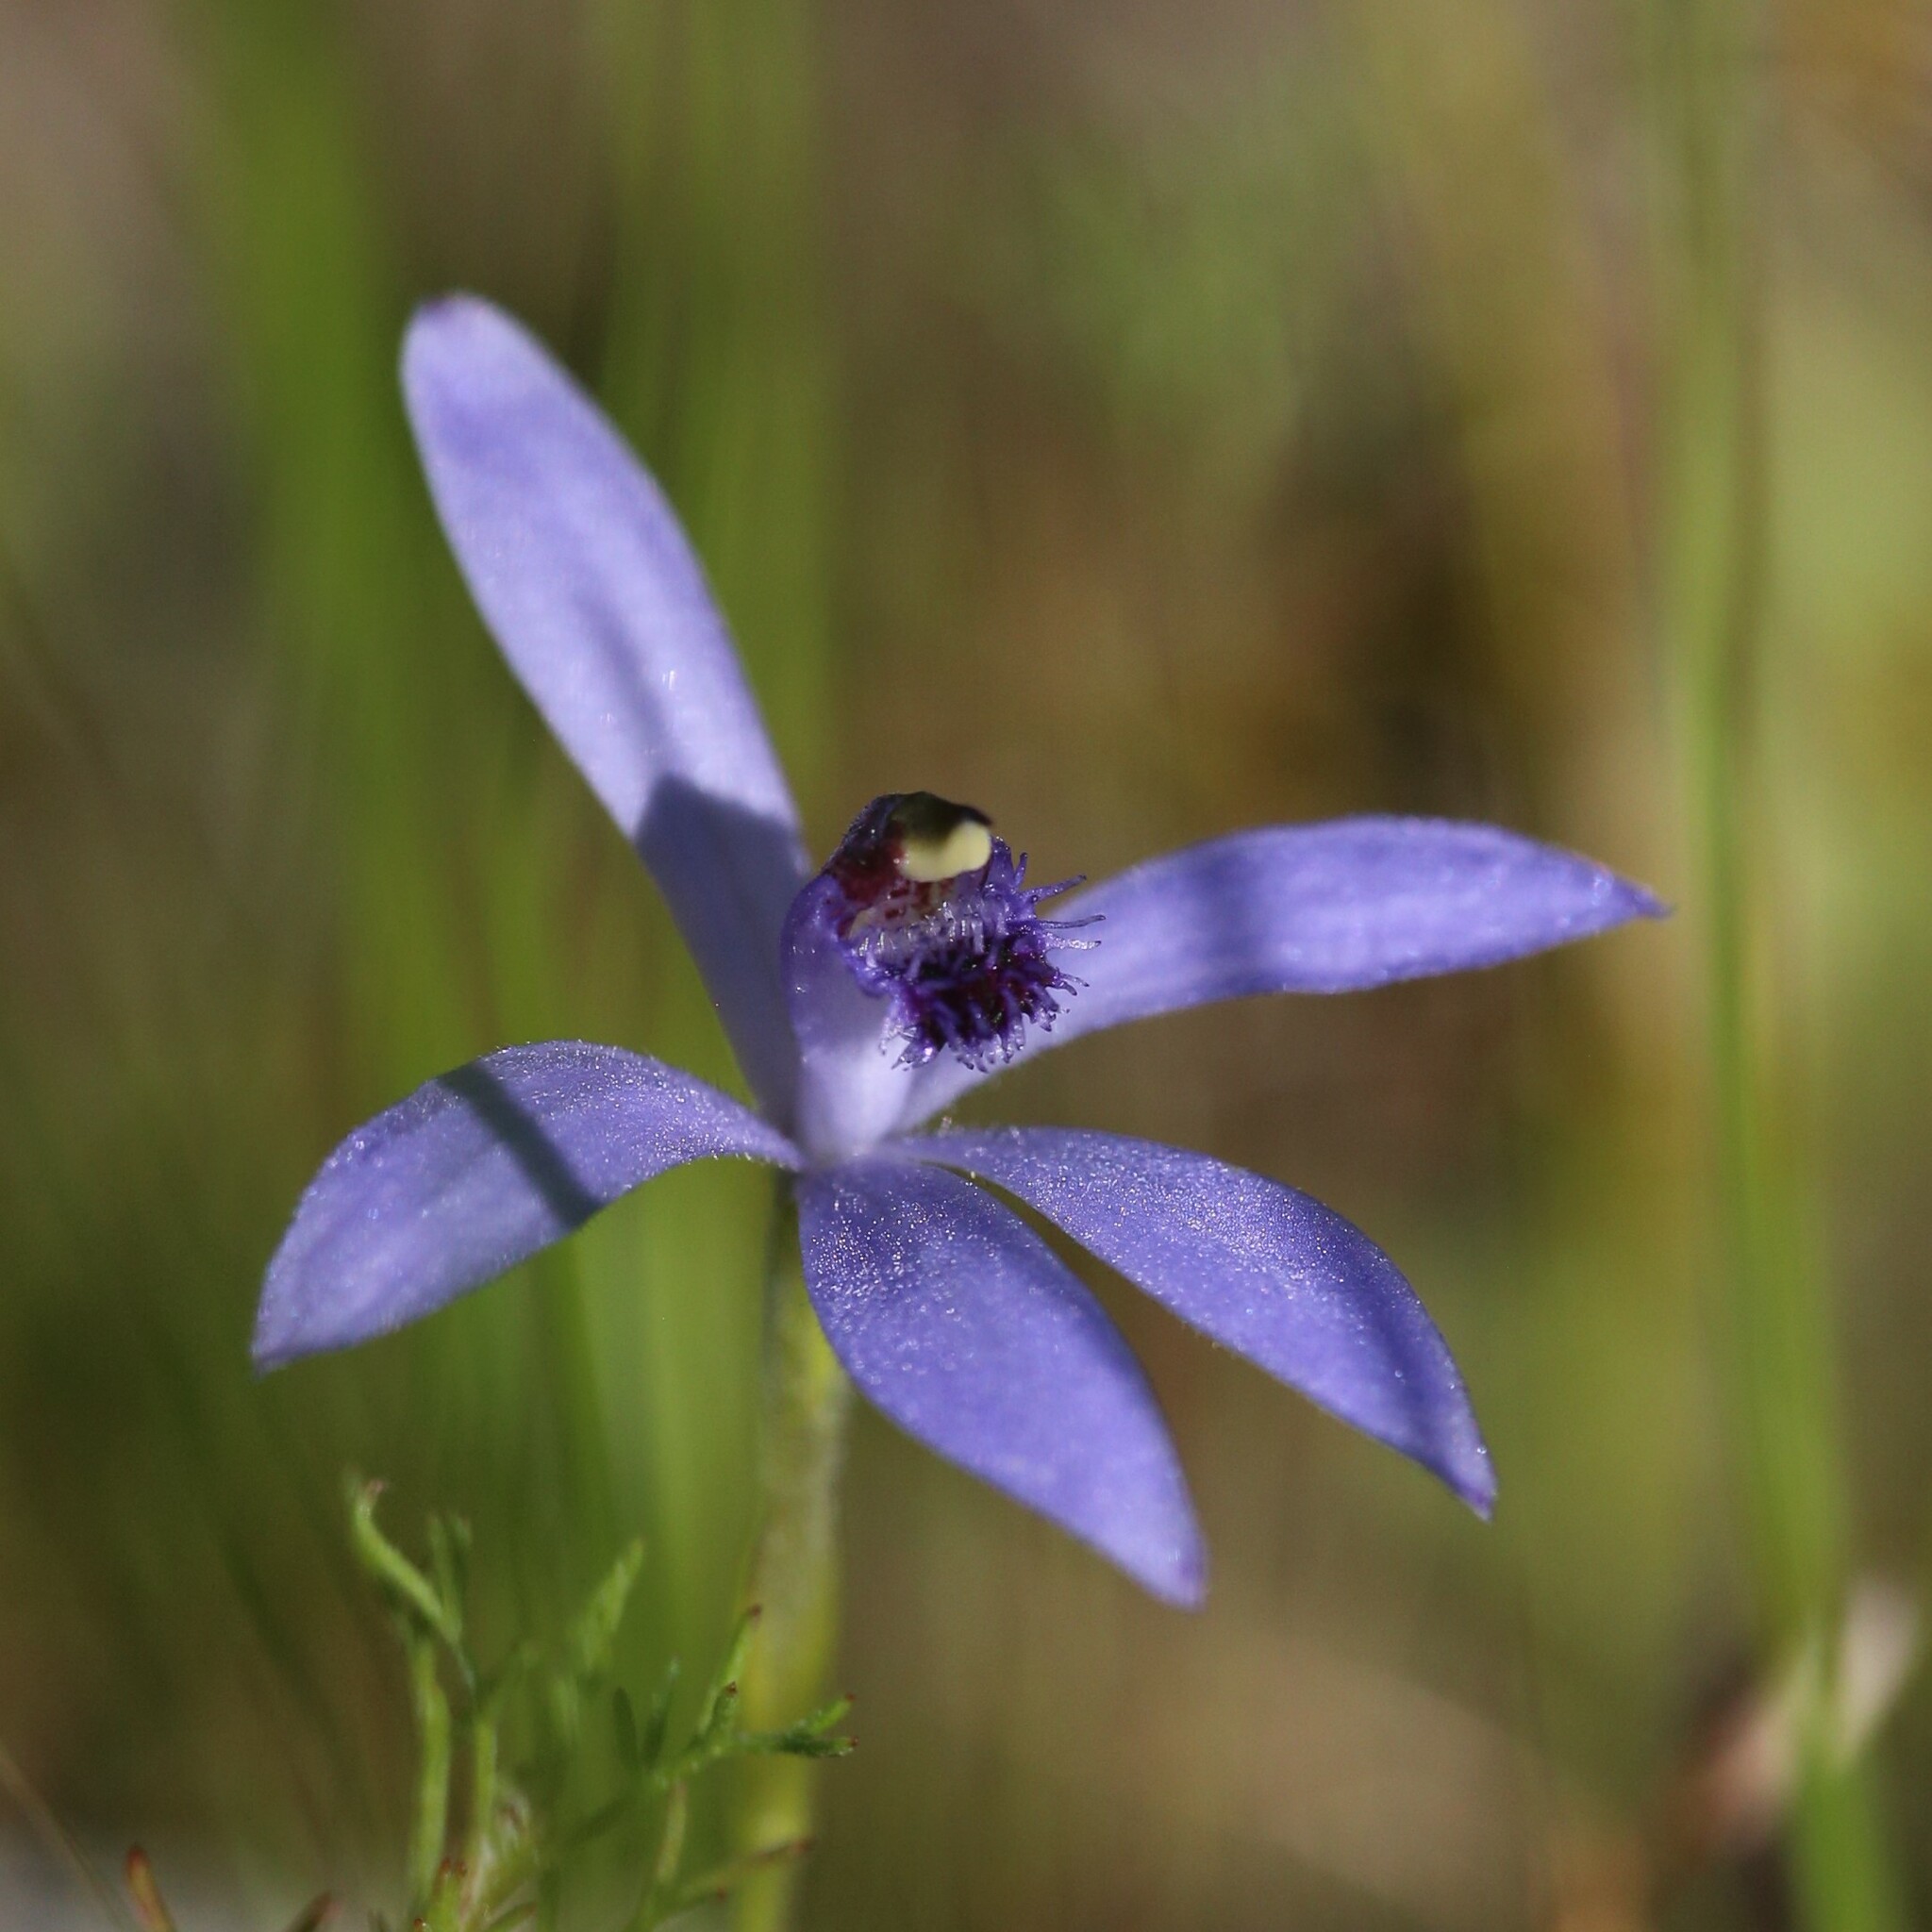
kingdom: Plantae
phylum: Tracheophyta
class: Liliopsida
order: Asparagales
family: Orchidaceae
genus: Pheladenia
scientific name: Pheladenia deformis
